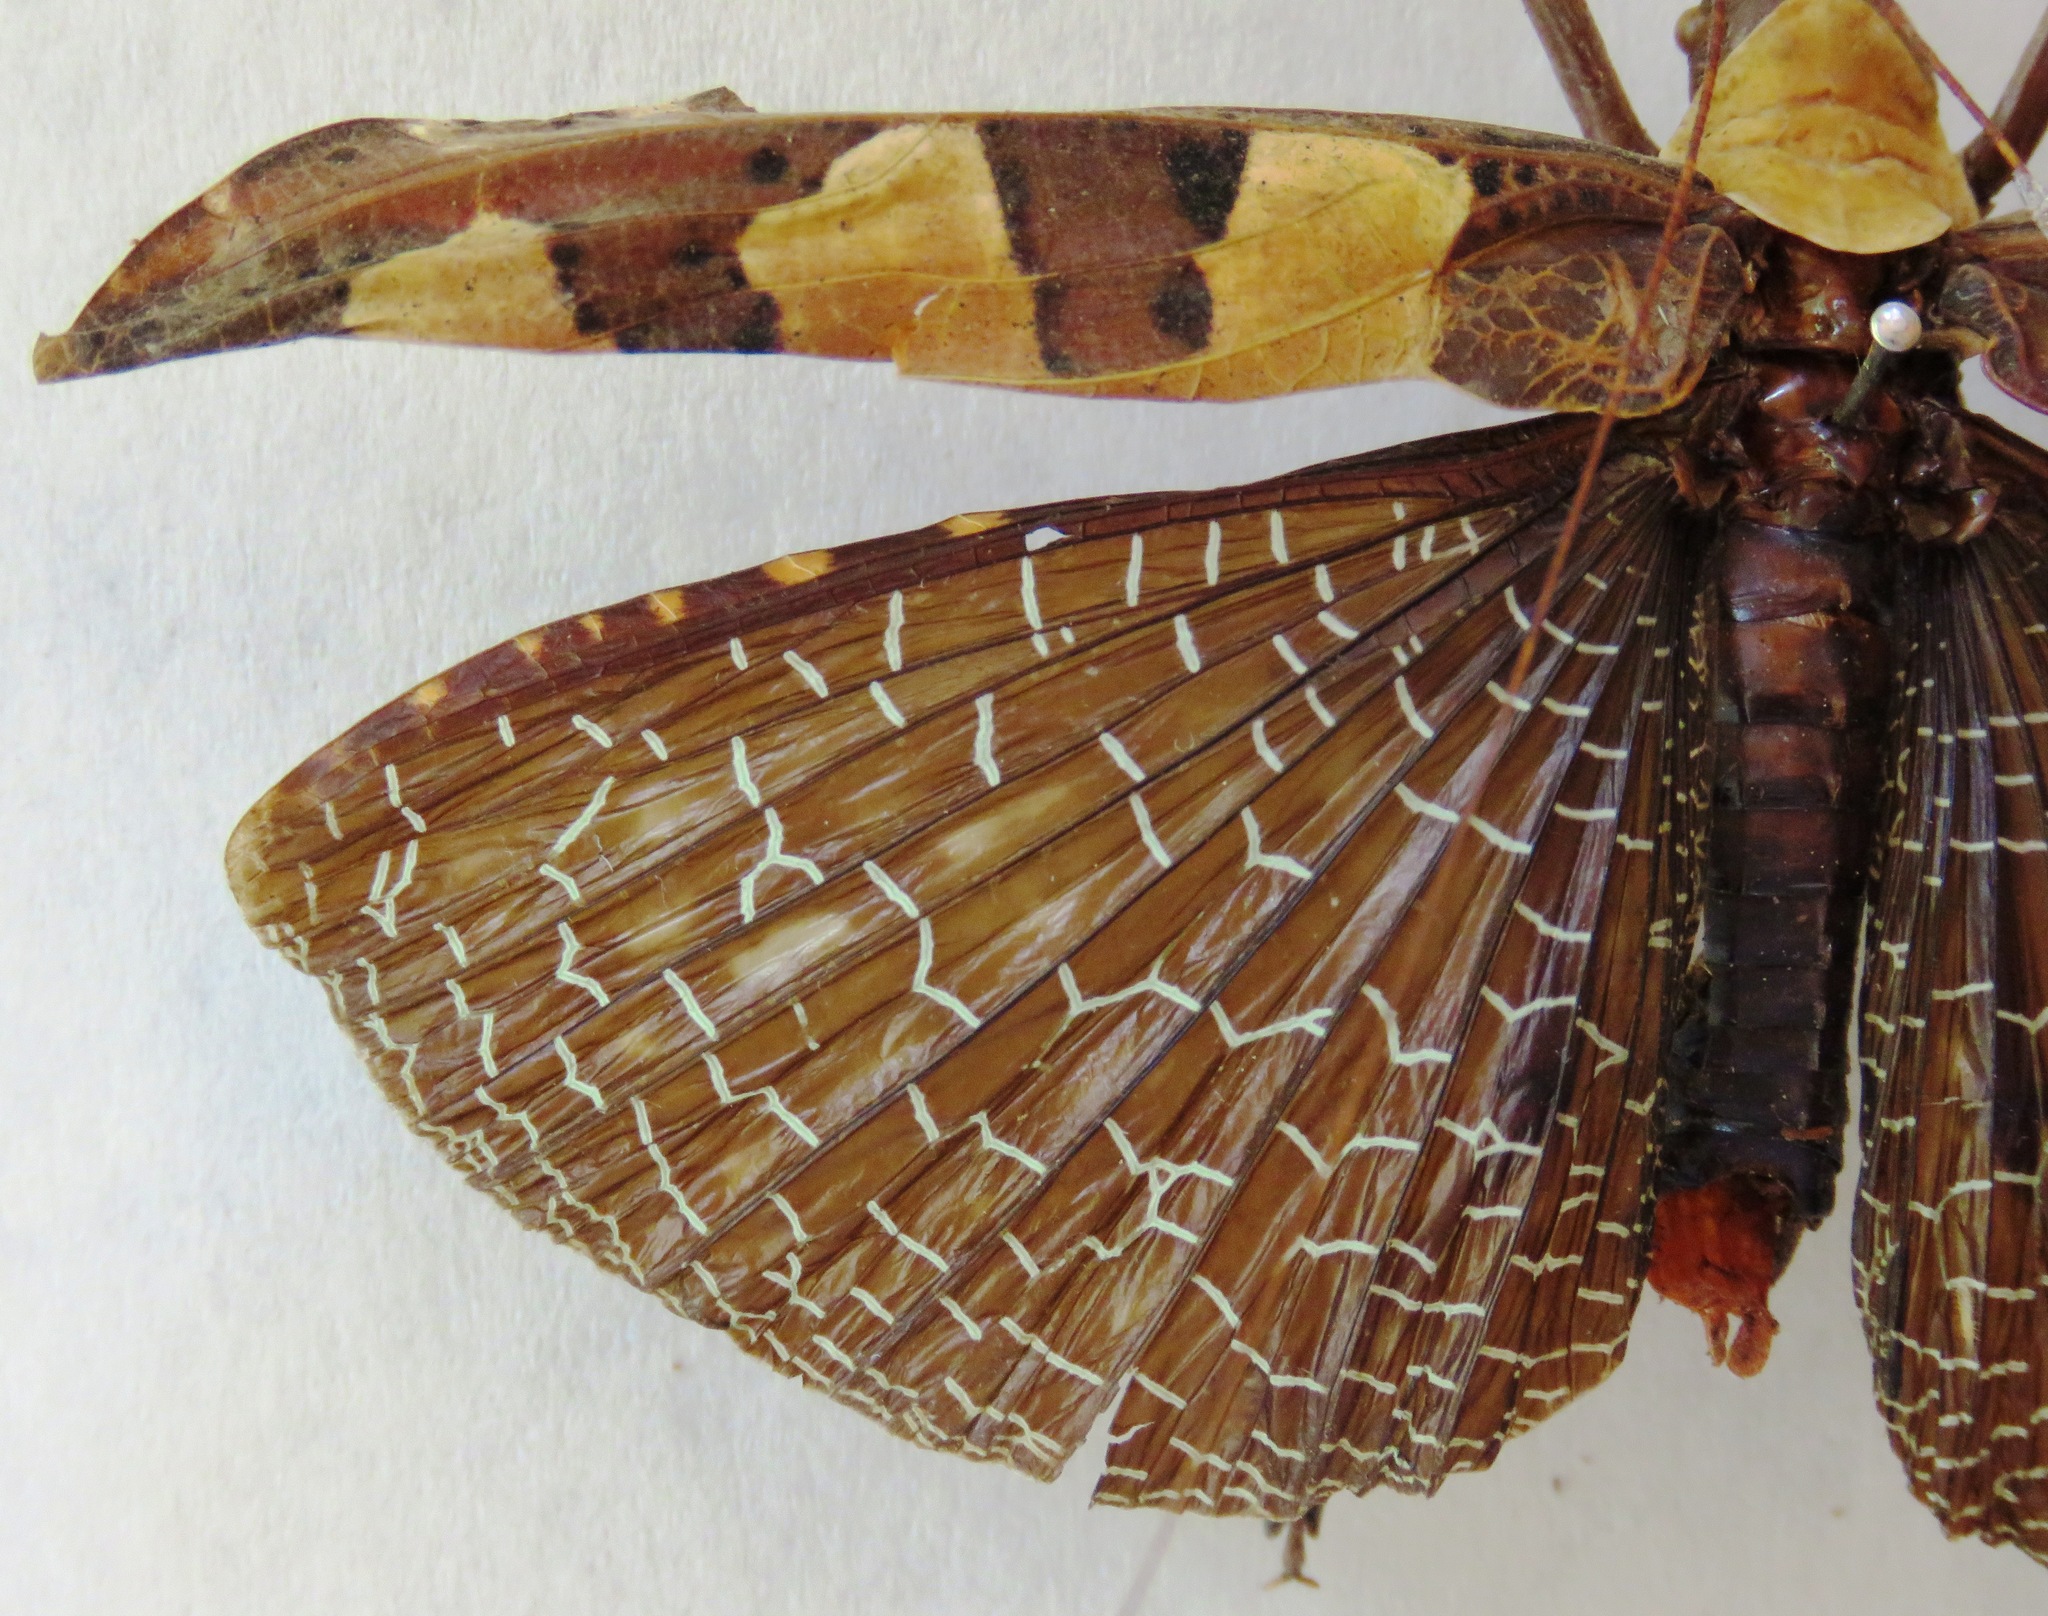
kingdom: Animalia
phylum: Arthropoda
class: Insecta
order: Orthoptera
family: Tettigoniidae
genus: Sanaa
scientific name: Sanaa intermedia
